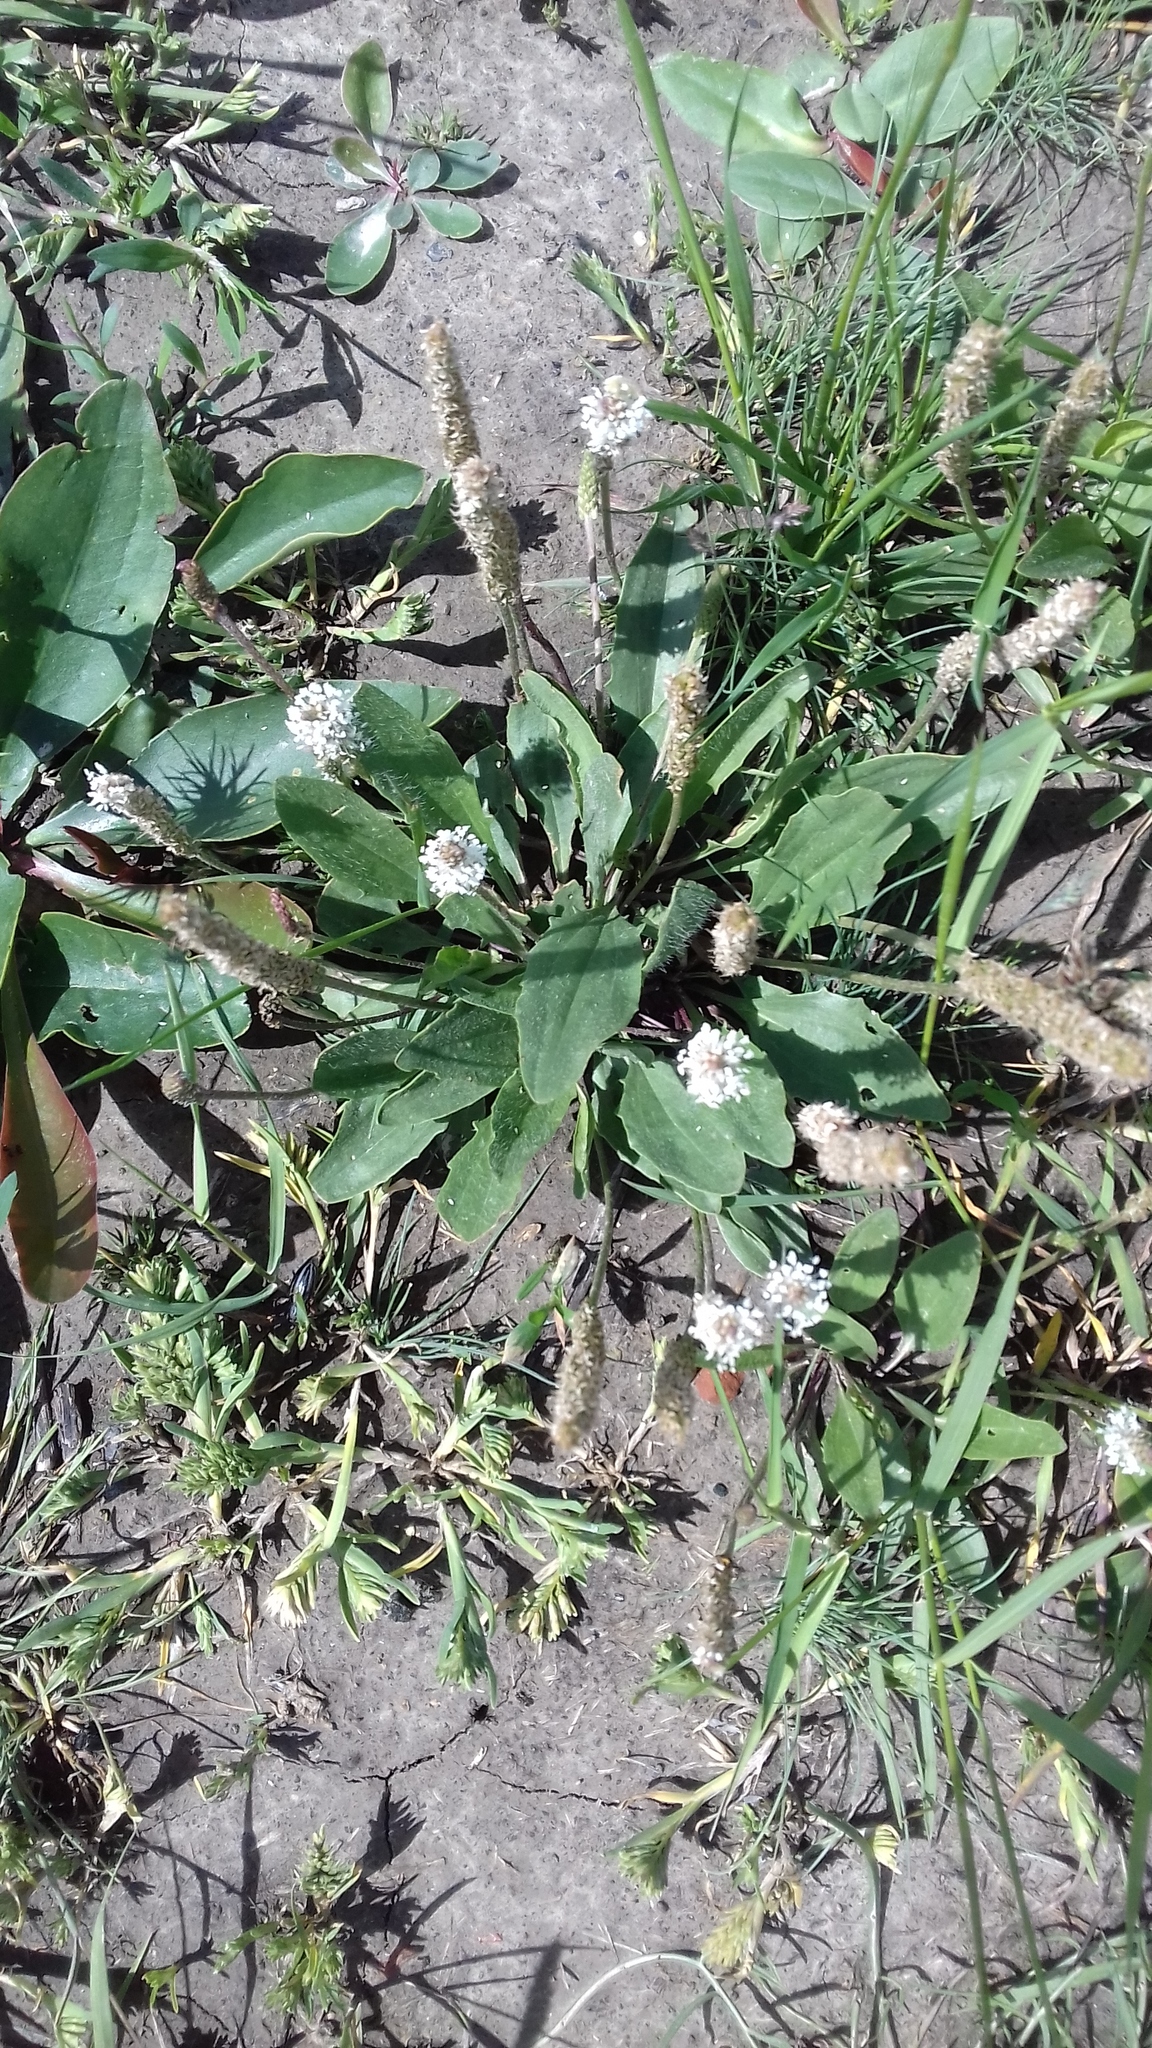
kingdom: Plantae
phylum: Tracheophyta
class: Magnoliopsida
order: Lamiales
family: Plantaginaceae
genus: Plantago
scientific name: Plantago schwarzenbergiana
